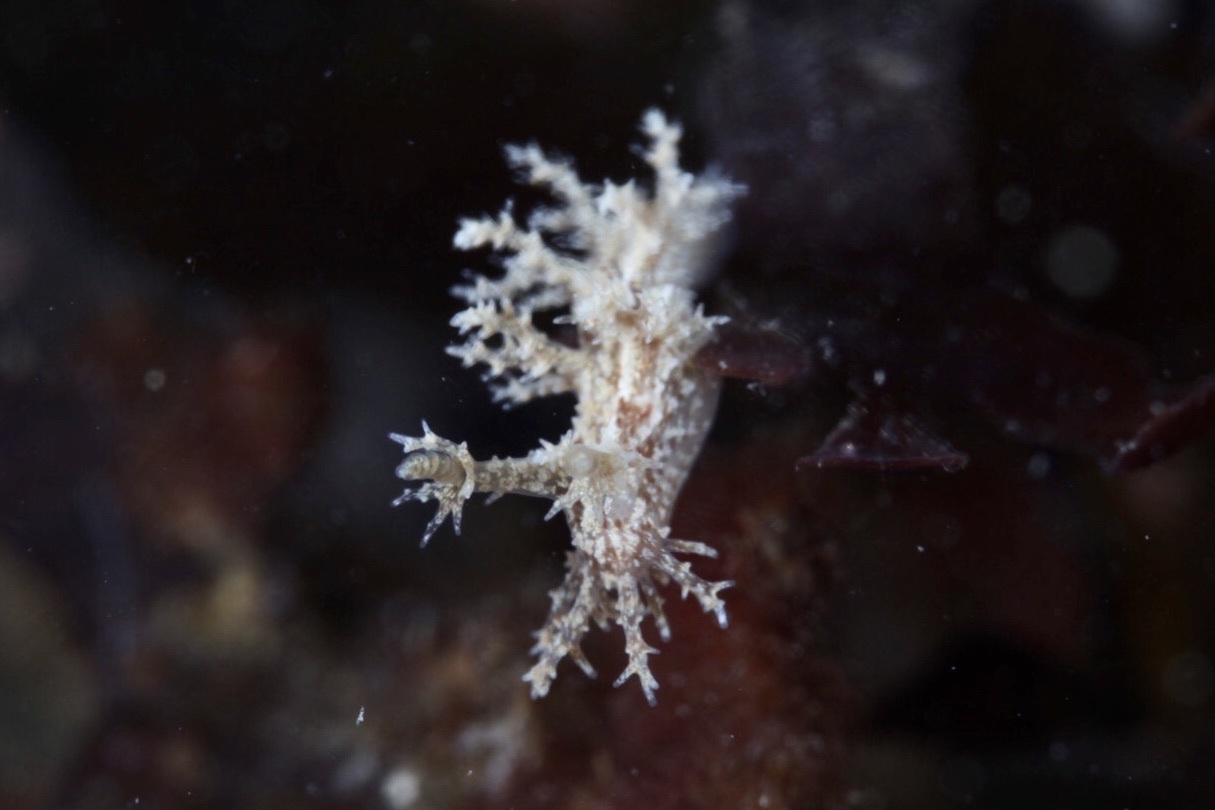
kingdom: Animalia
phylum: Mollusca
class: Gastropoda
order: Nudibranchia
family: Dendronotidae
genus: Dendronotus
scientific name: Dendronotus frondosus
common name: Bushy-backed nudibranch
